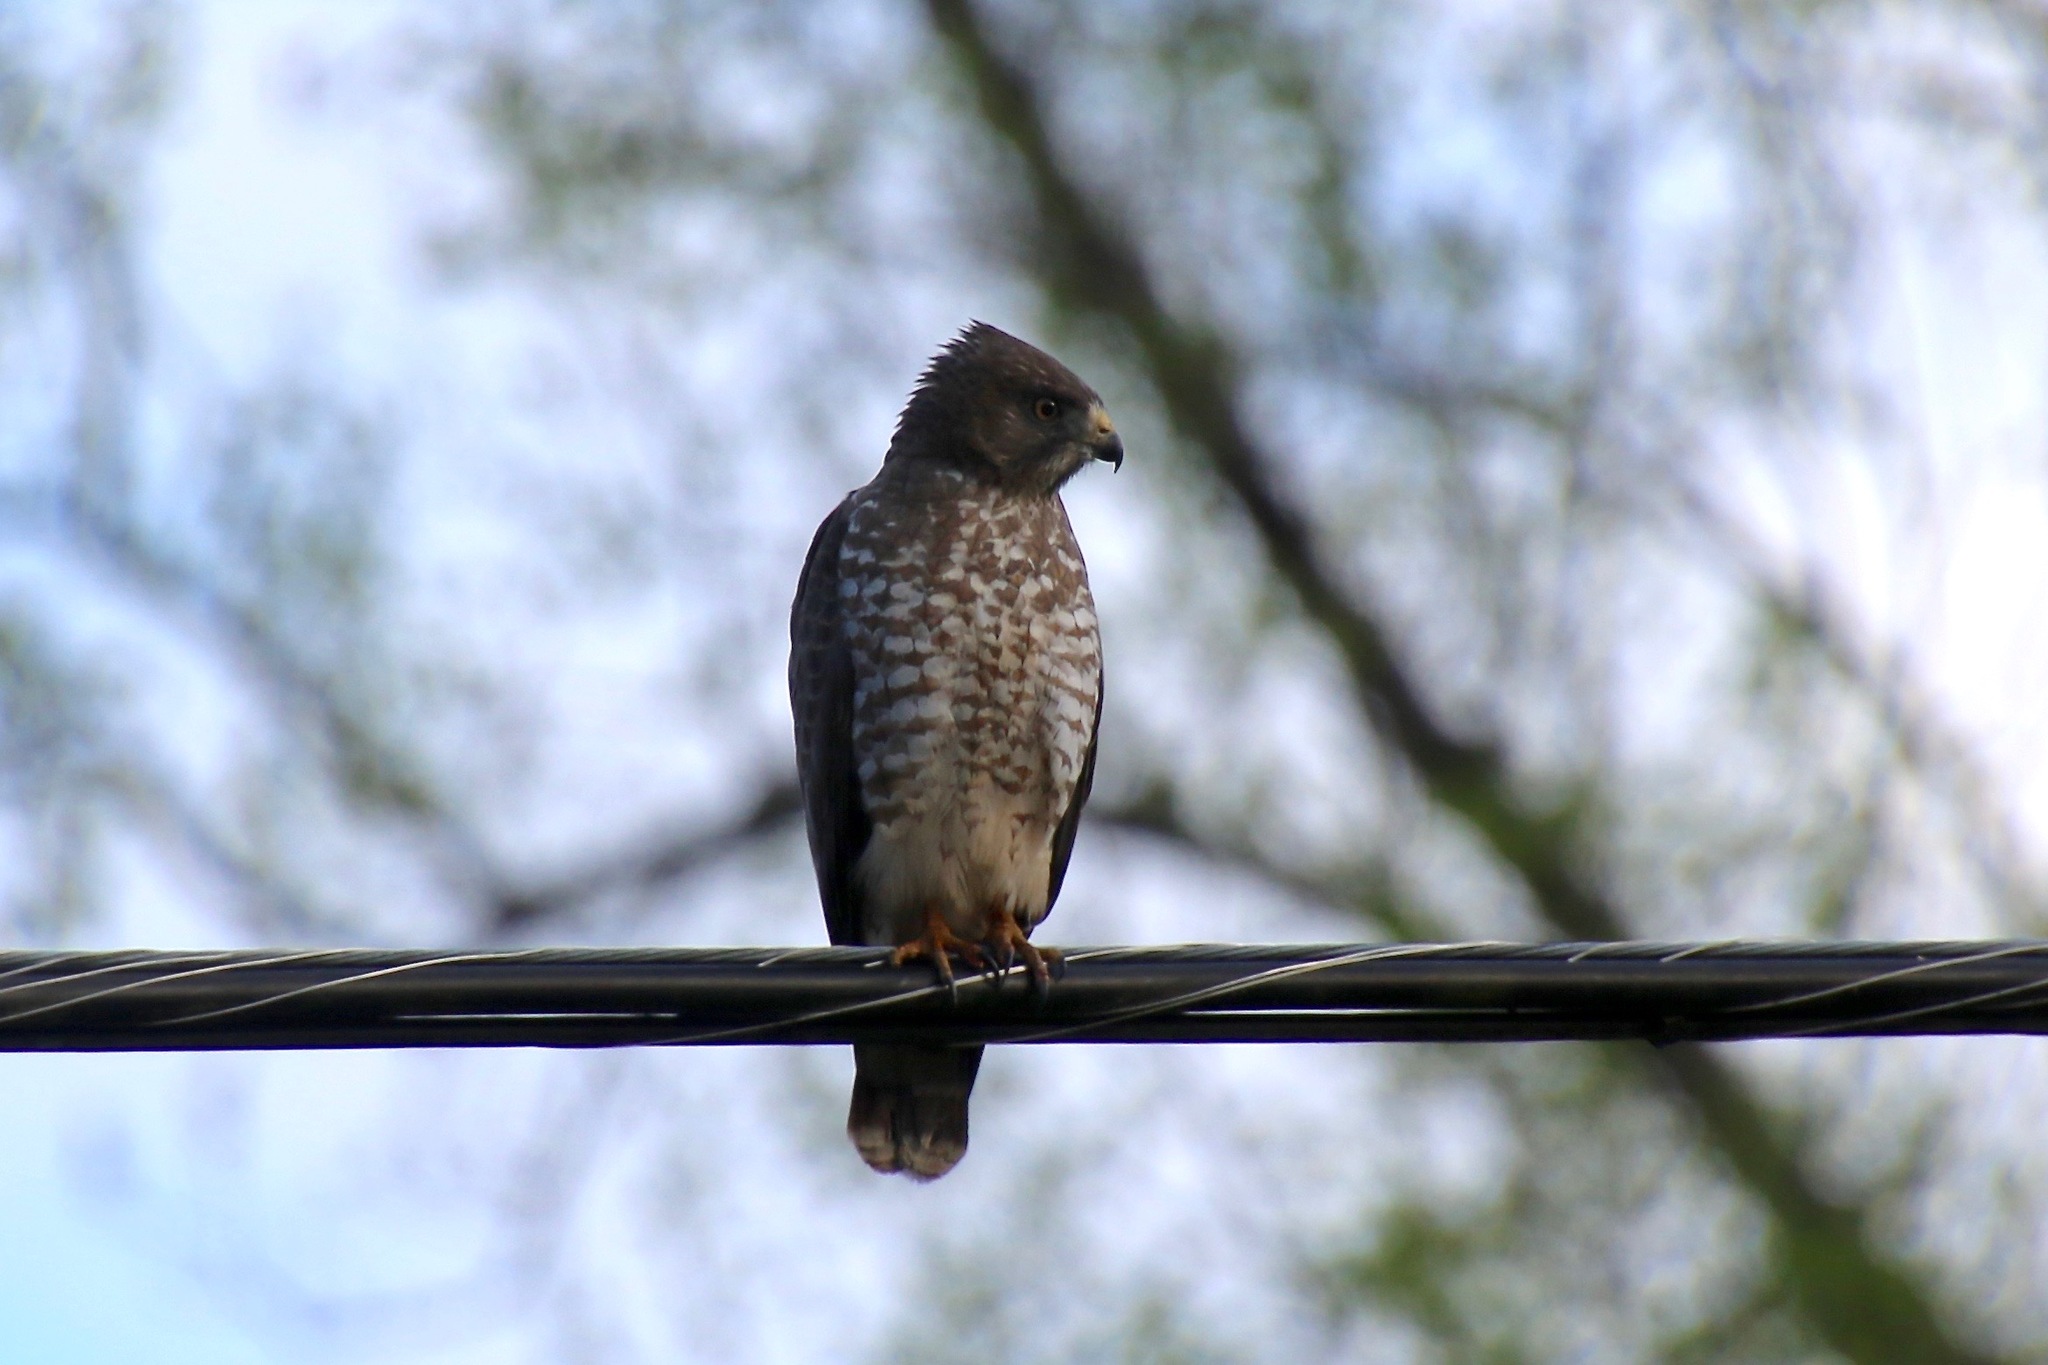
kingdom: Animalia
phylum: Chordata
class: Aves
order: Accipitriformes
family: Accipitridae
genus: Buteo
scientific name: Buteo platypterus
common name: Broad-winged hawk
